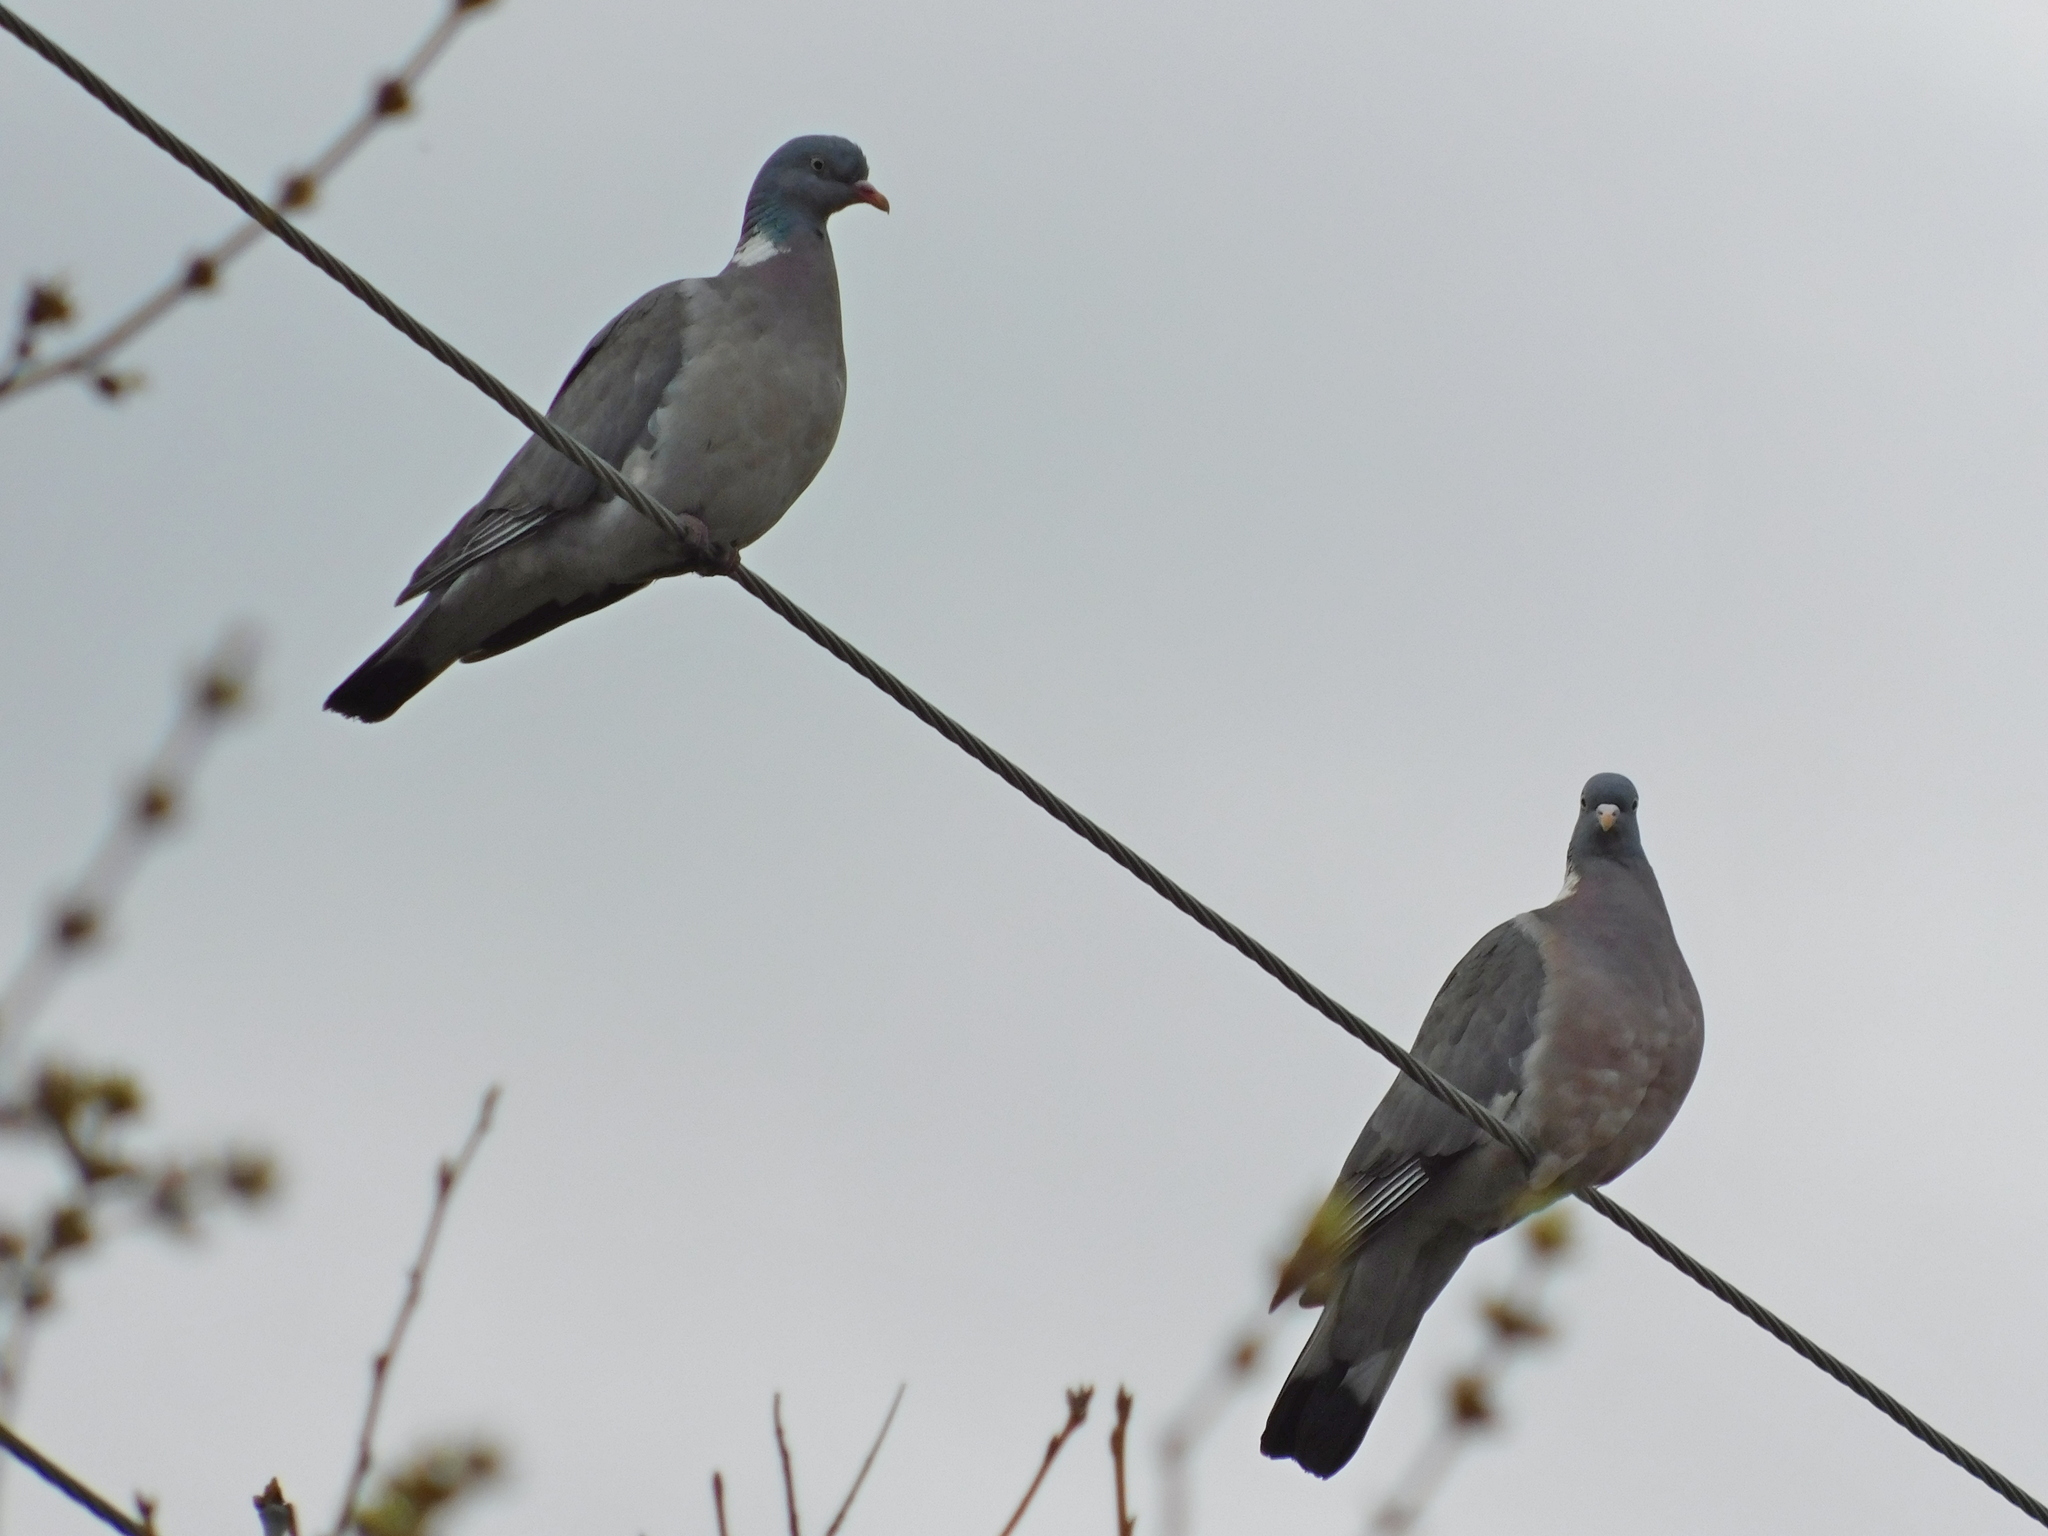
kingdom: Animalia
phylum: Chordata
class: Aves
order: Columbiformes
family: Columbidae
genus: Columba
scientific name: Columba palumbus
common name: Common wood pigeon
